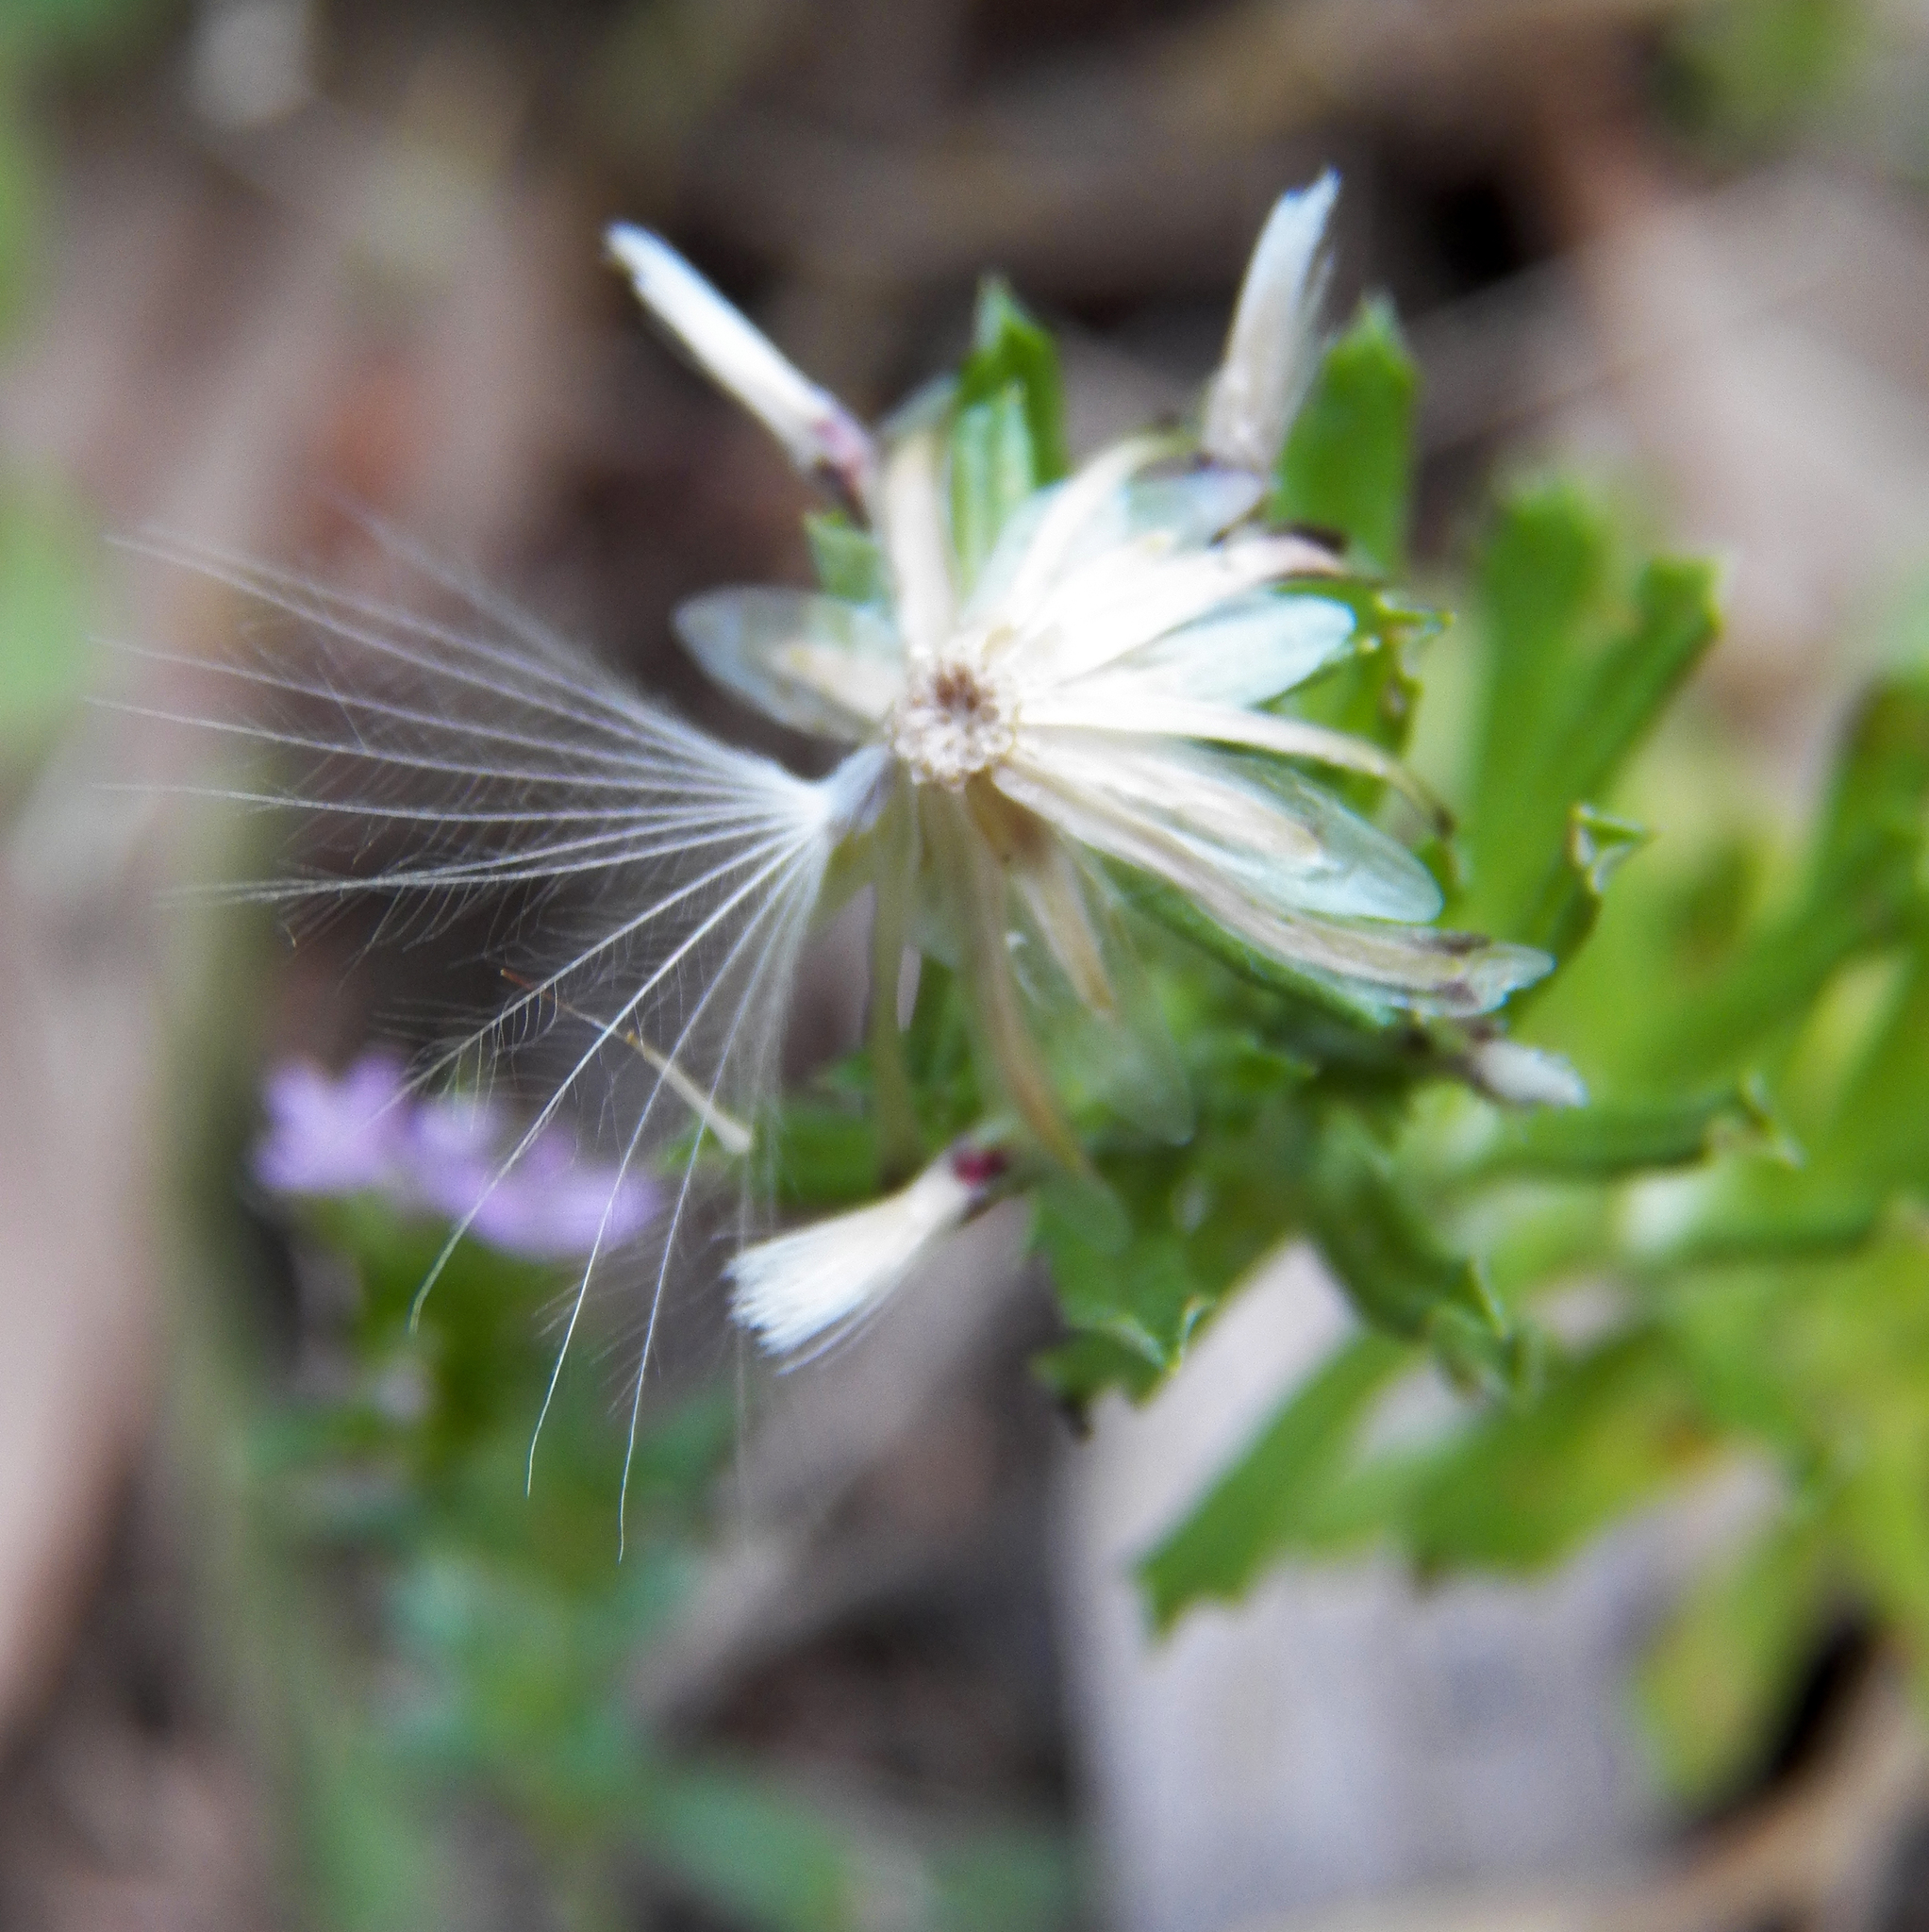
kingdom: Plantae
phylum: Tracheophyta
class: Magnoliopsida
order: Asterales
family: Asteraceae
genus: Facelis
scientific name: Facelis retusa
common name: Annual trampweed
